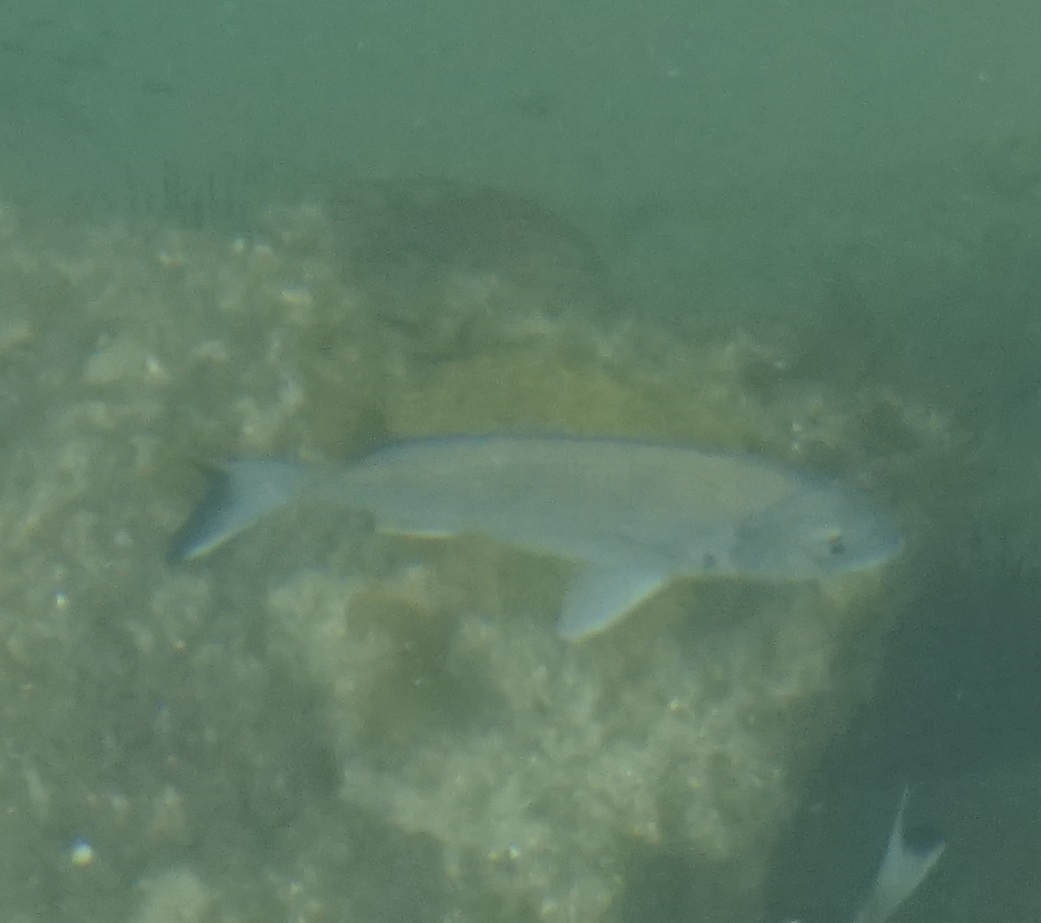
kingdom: Animalia
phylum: Chordata
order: Perciformes
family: Sparidae
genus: Acanthopagrus
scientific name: Acanthopagrus australis
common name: Surf bream
